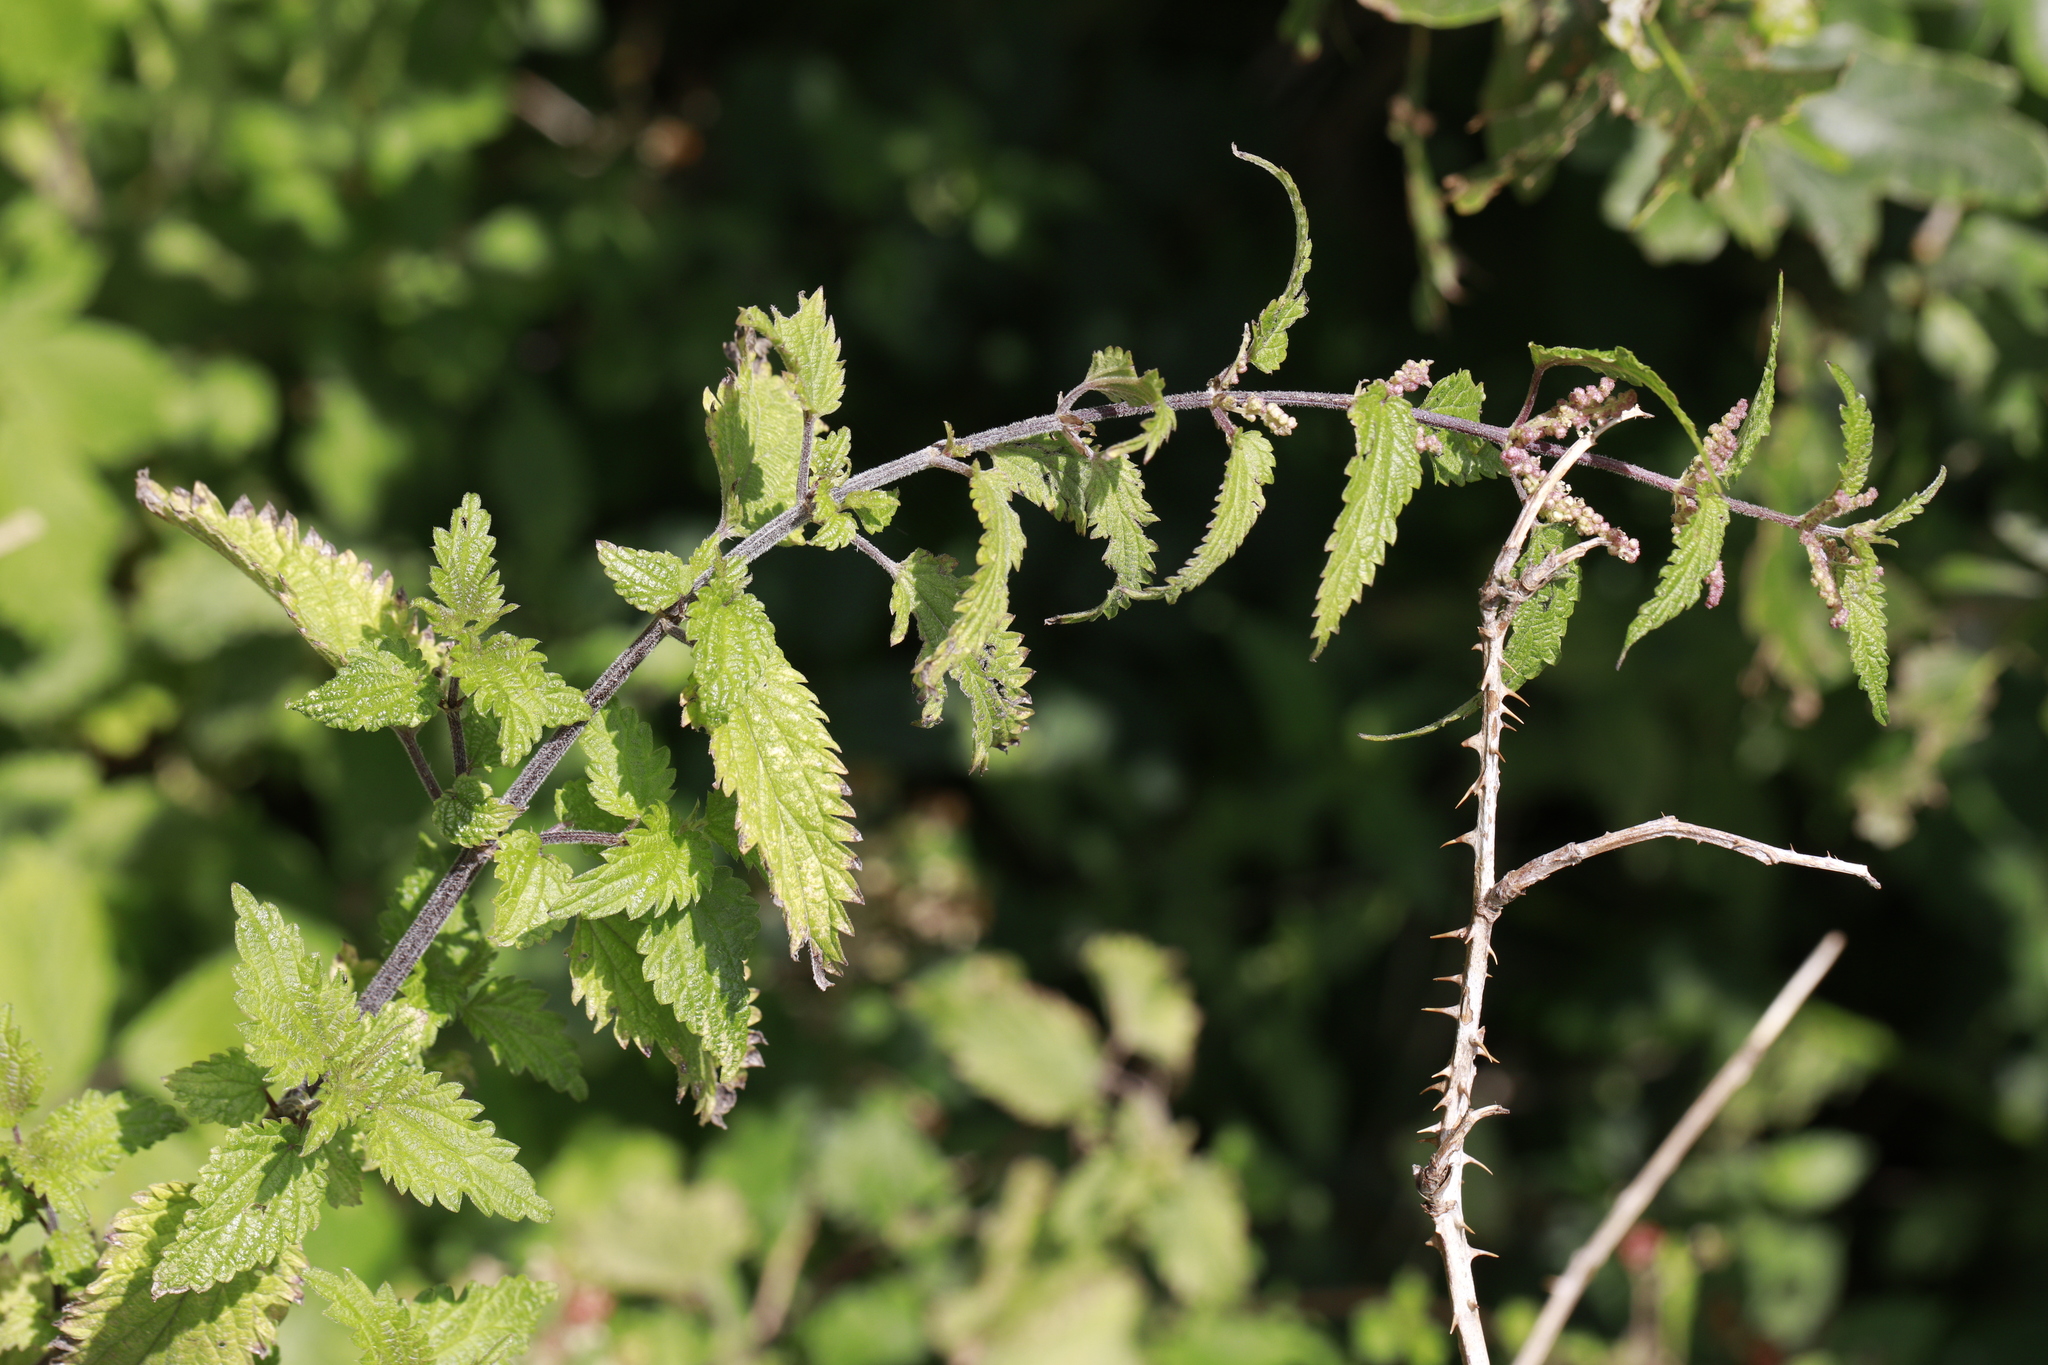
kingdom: Plantae
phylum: Tracheophyta
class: Magnoliopsida
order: Rosales
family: Urticaceae
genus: Urtica
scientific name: Urtica dioica
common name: Common nettle
